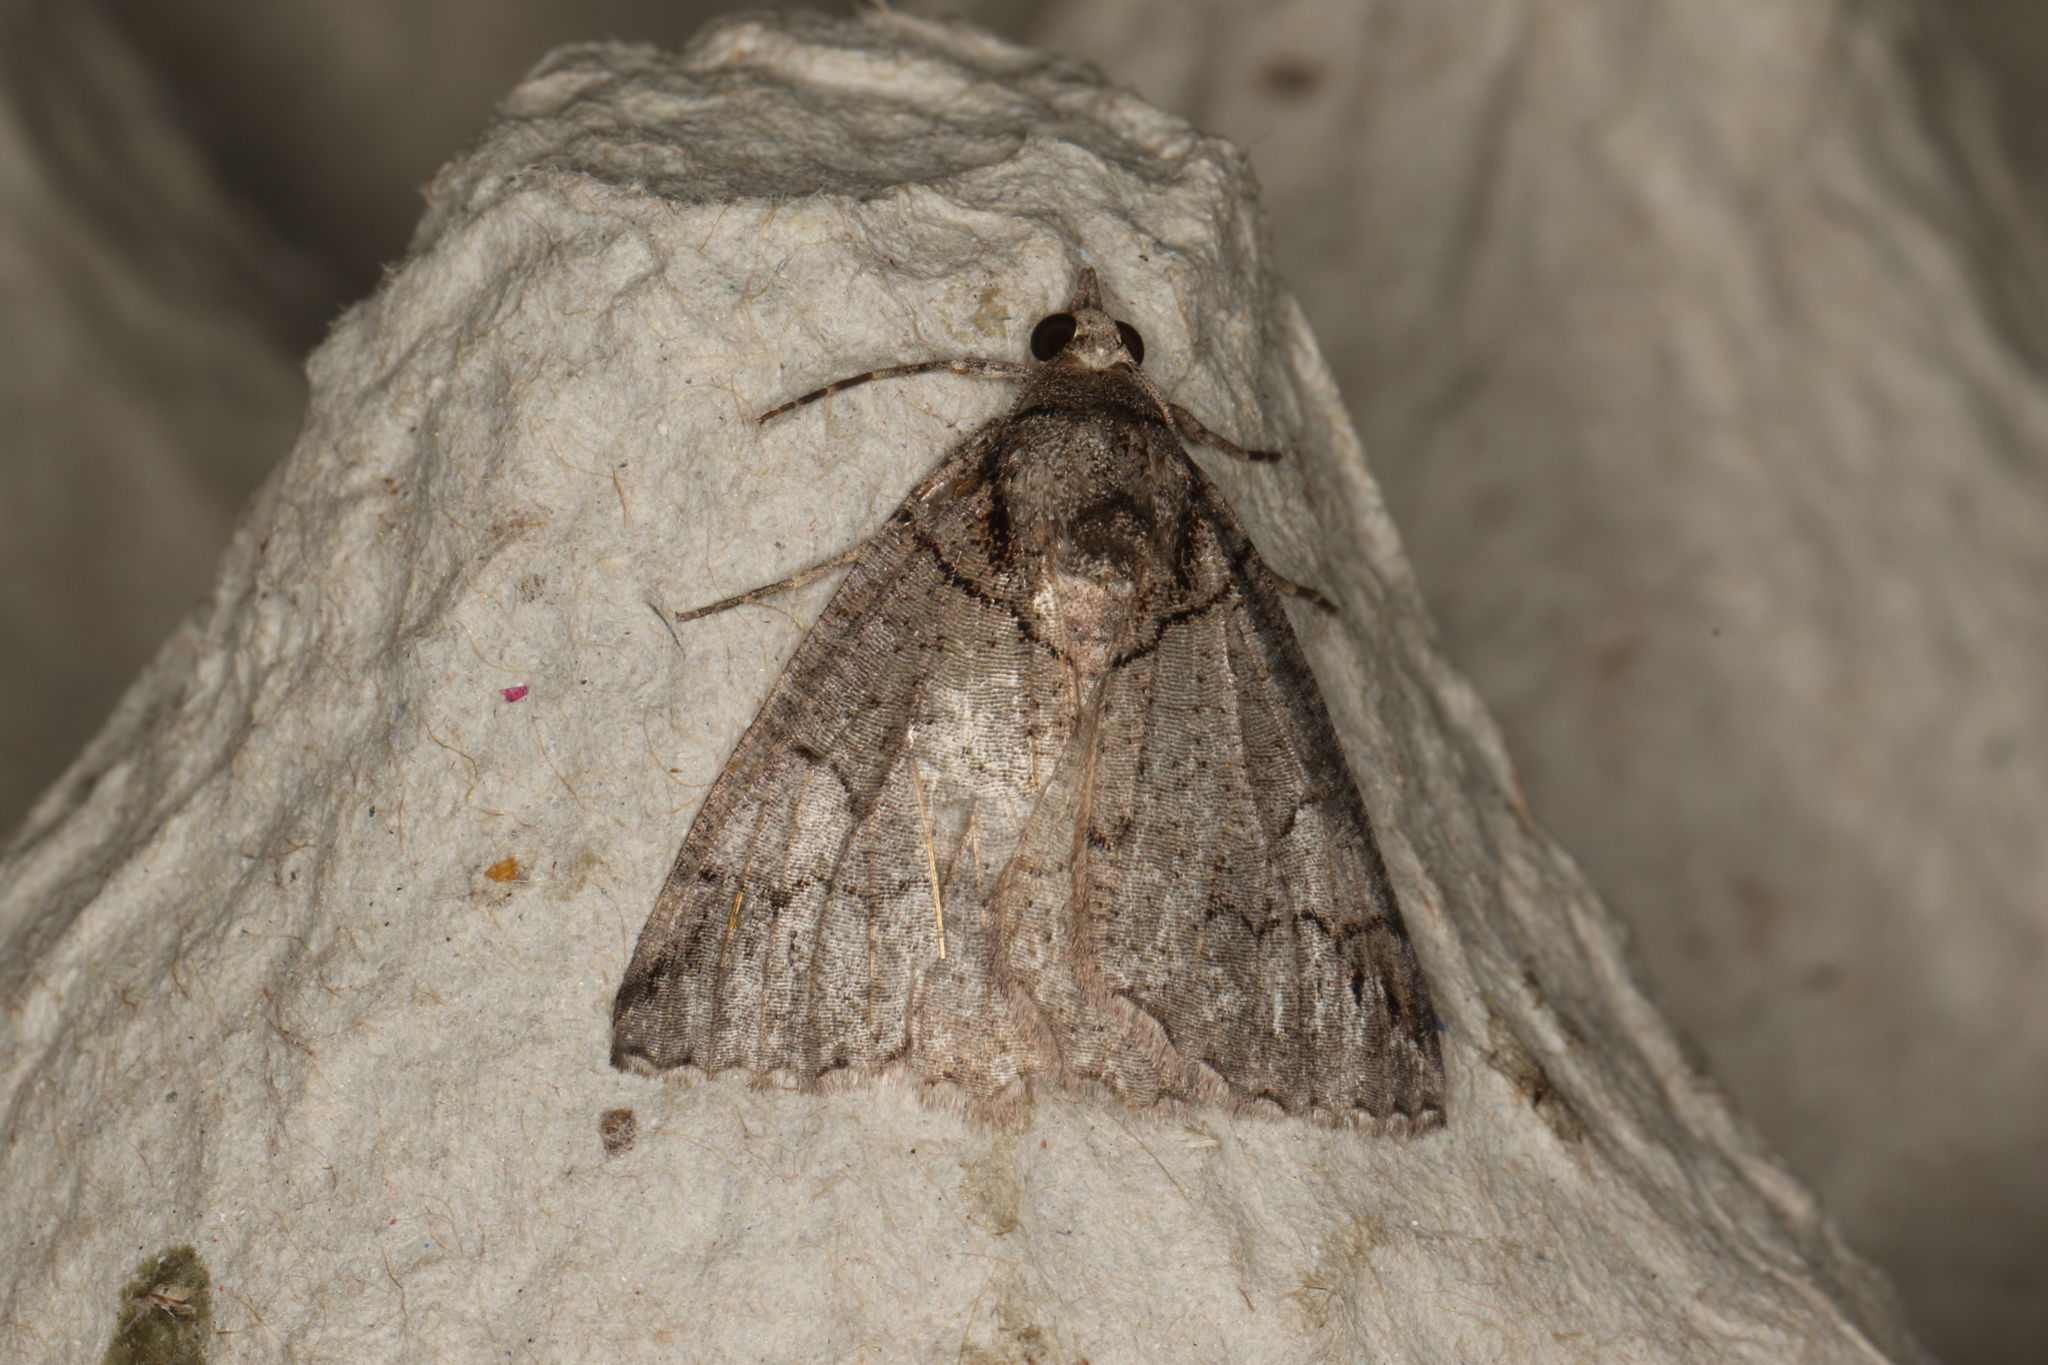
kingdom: Animalia
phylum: Arthropoda
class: Insecta
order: Lepidoptera
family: Geometridae
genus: Austroterpna
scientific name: Austroterpna paratorna
